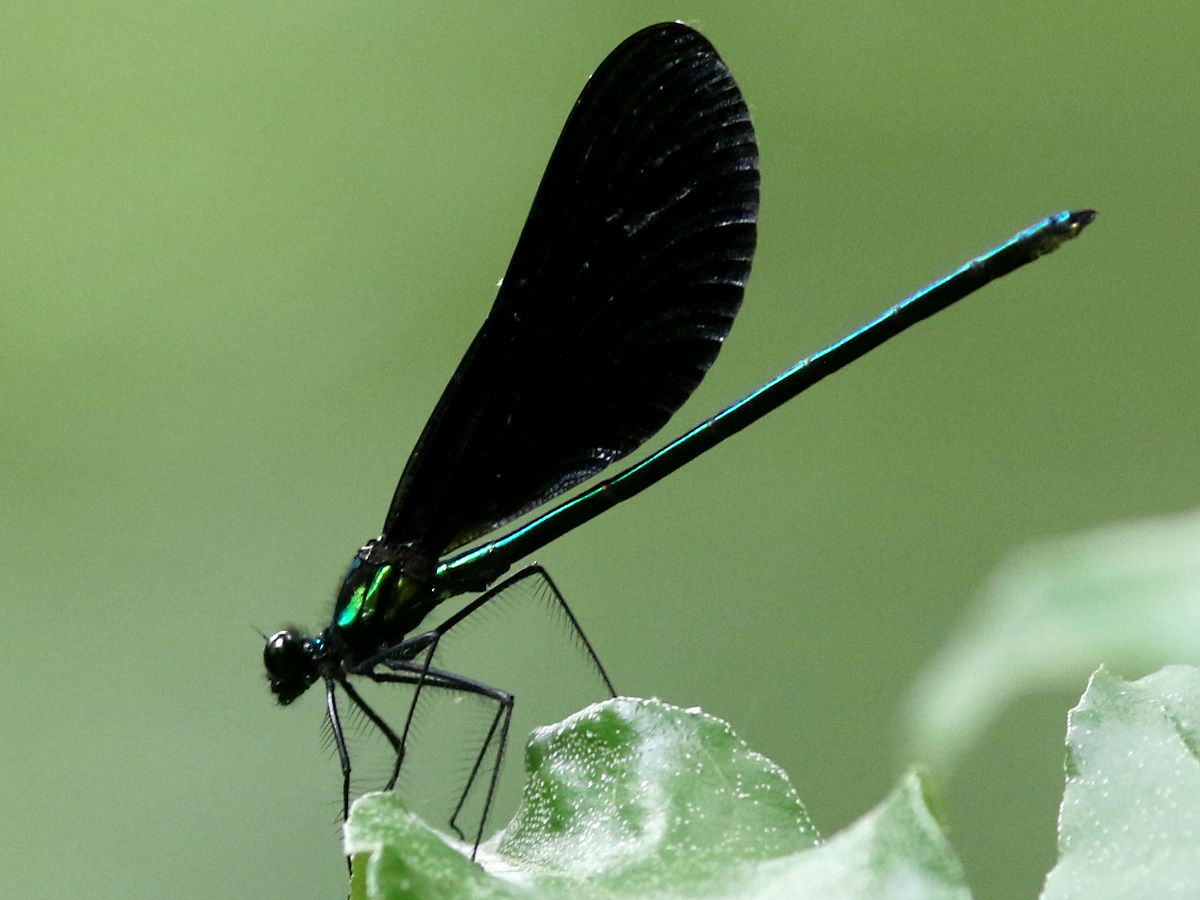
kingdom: Animalia
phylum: Arthropoda
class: Insecta
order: Odonata
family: Calopterygidae
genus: Calopteryx
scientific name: Calopteryx maculata
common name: Ebony jewelwing
